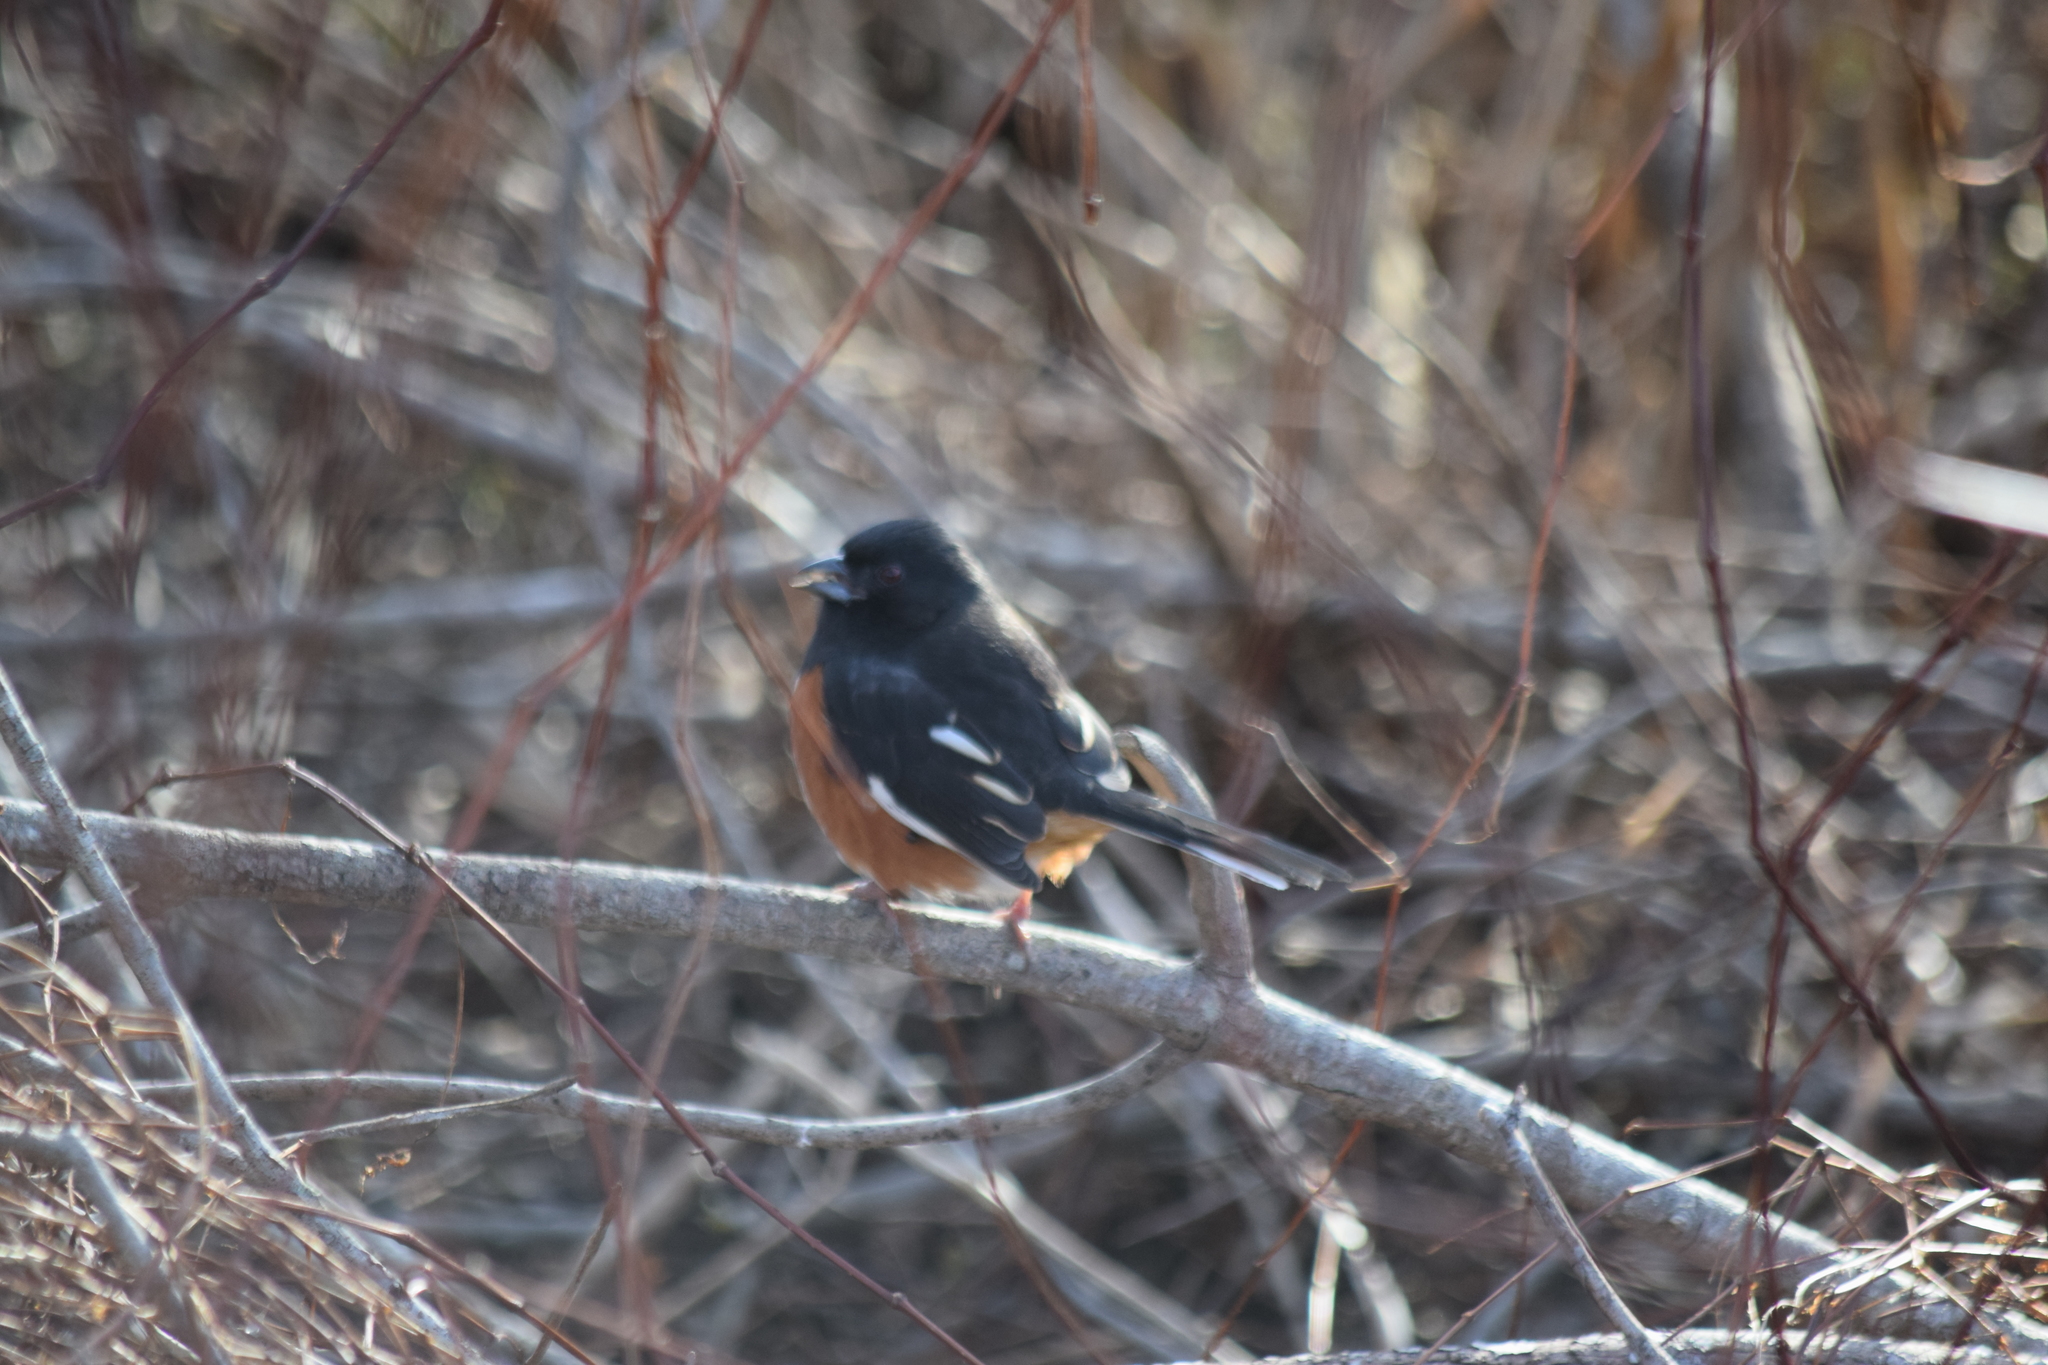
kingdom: Animalia
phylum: Chordata
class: Aves
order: Passeriformes
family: Passerellidae
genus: Pipilo
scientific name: Pipilo erythrophthalmus
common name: Eastern towhee
